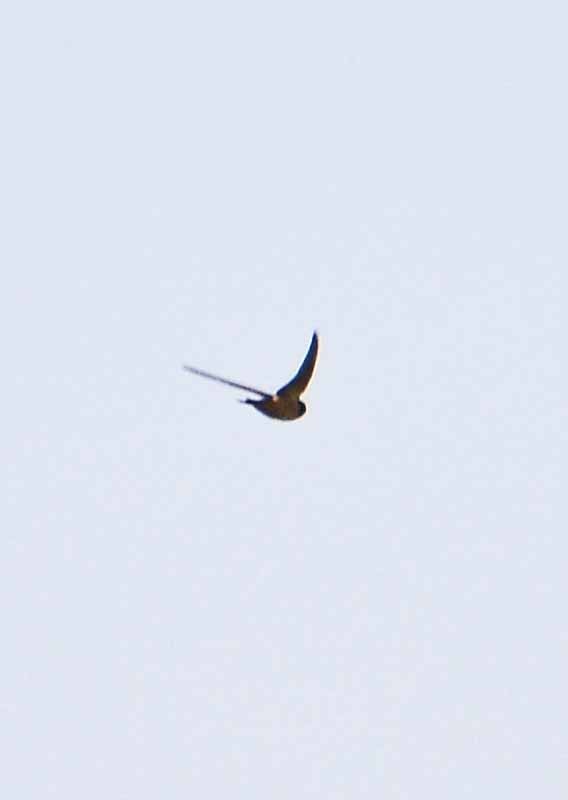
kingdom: Animalia
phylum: Chordata
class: Aves
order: Passeriformes
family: Hirundinidae
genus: Hirundo
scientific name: Hirundo rustica
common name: Barn swallow
